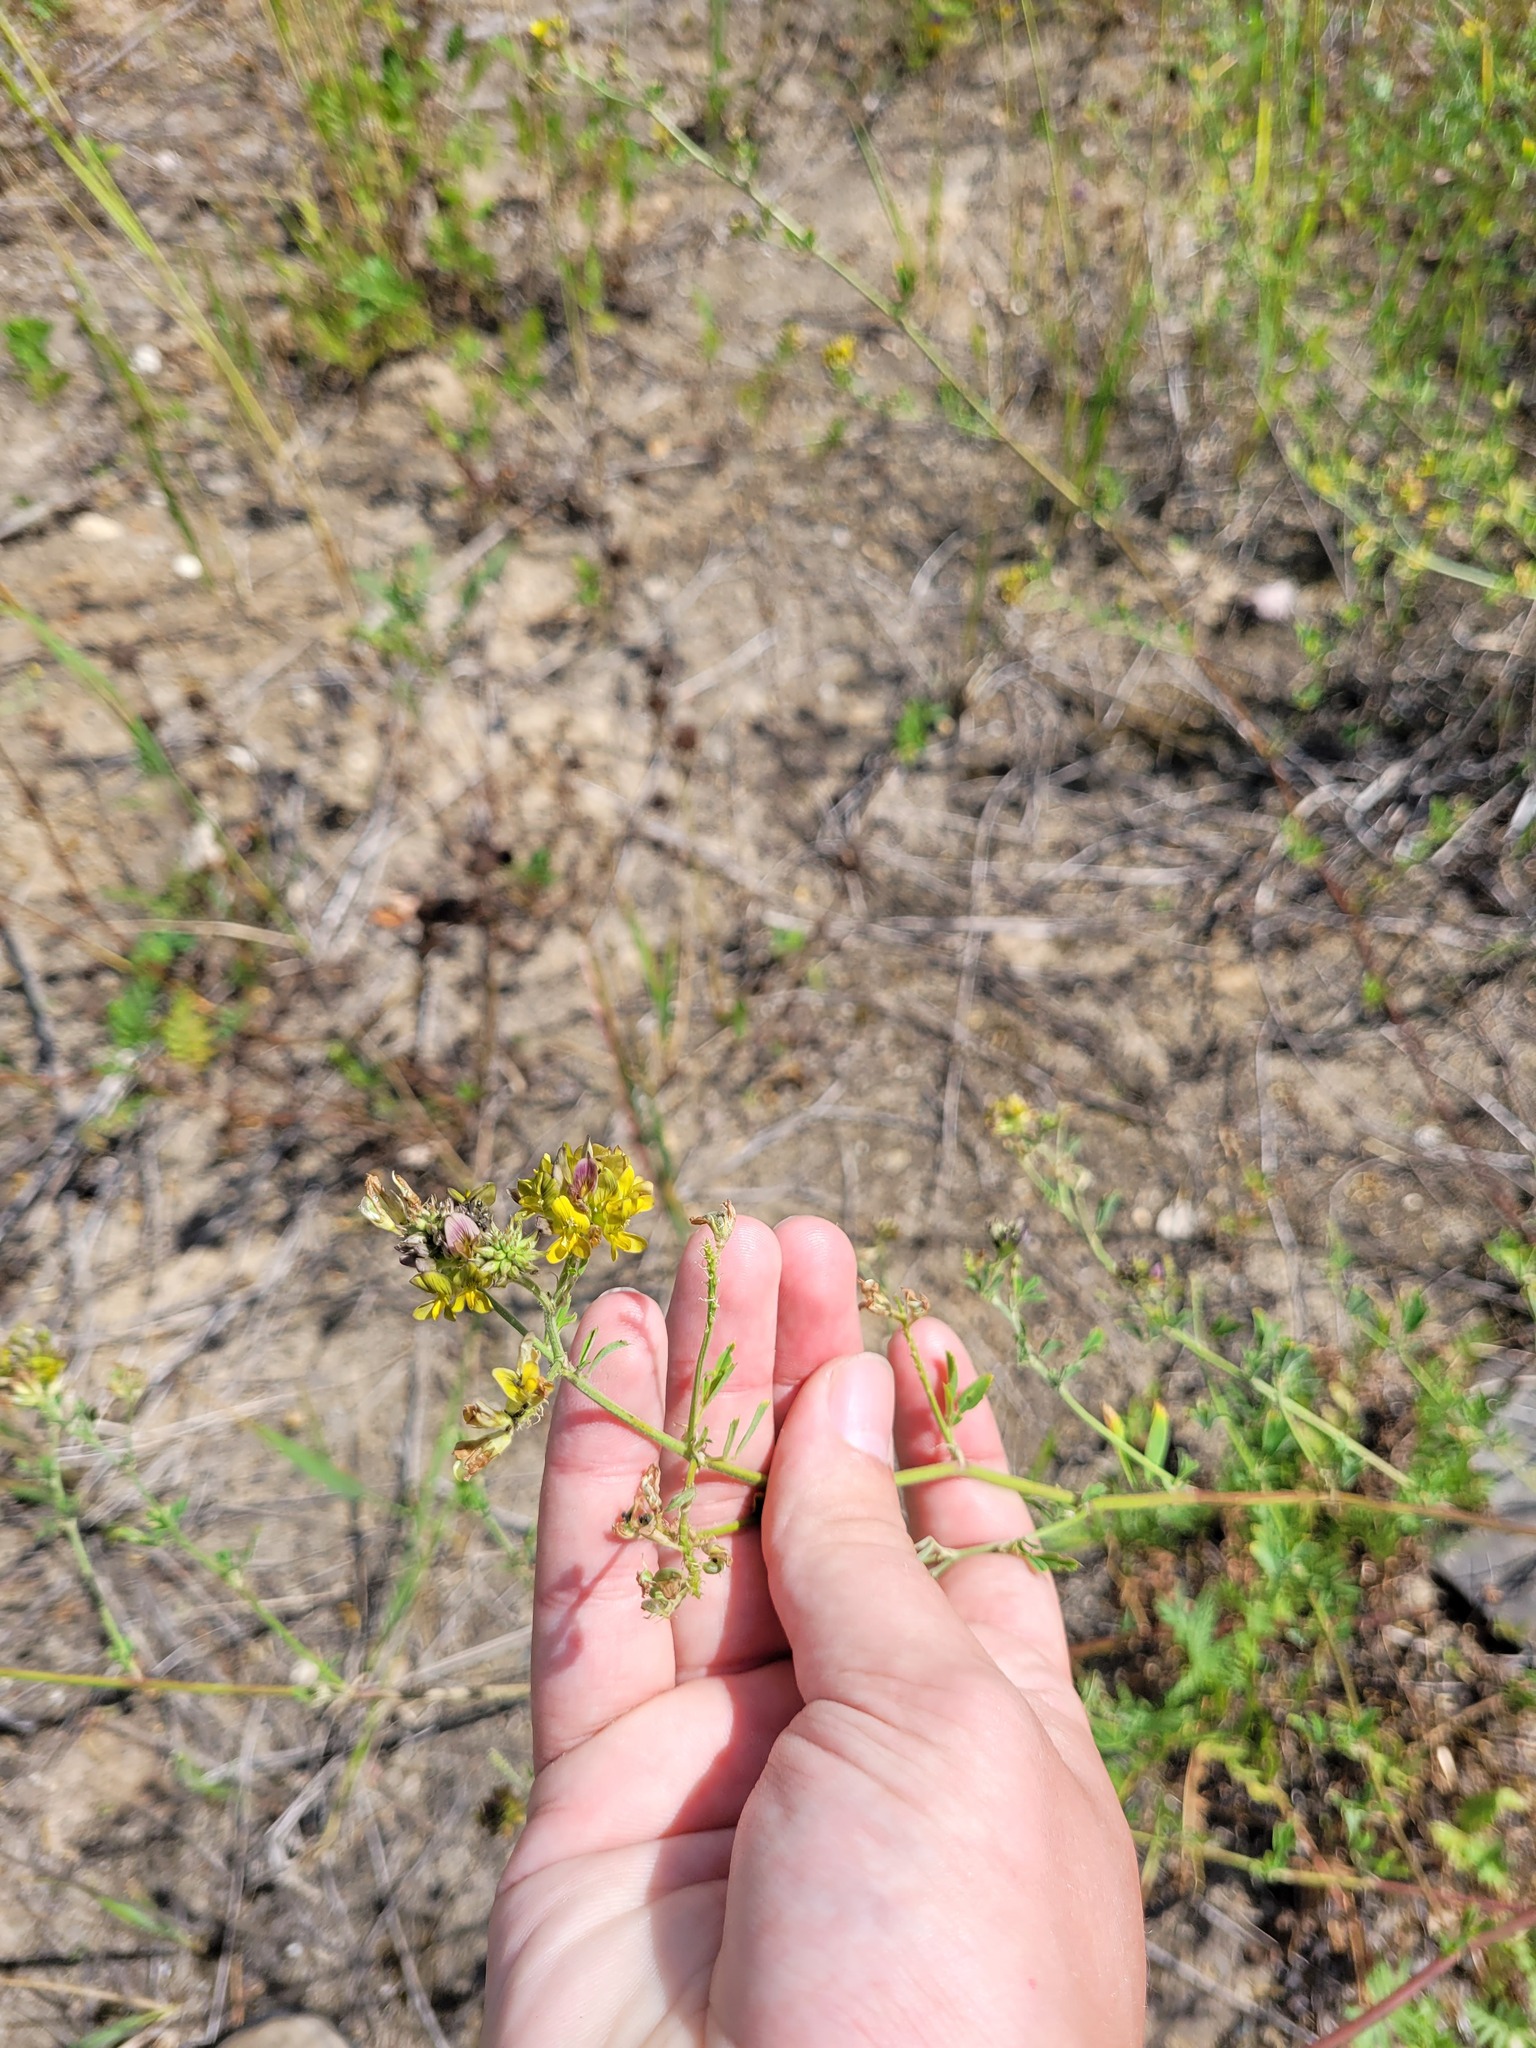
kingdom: Plantae
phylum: Tracheophyta
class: Magnoliopsida
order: Fabales
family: Fabaceae
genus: Medicago
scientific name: Medicago varia
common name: Sand lucerne
